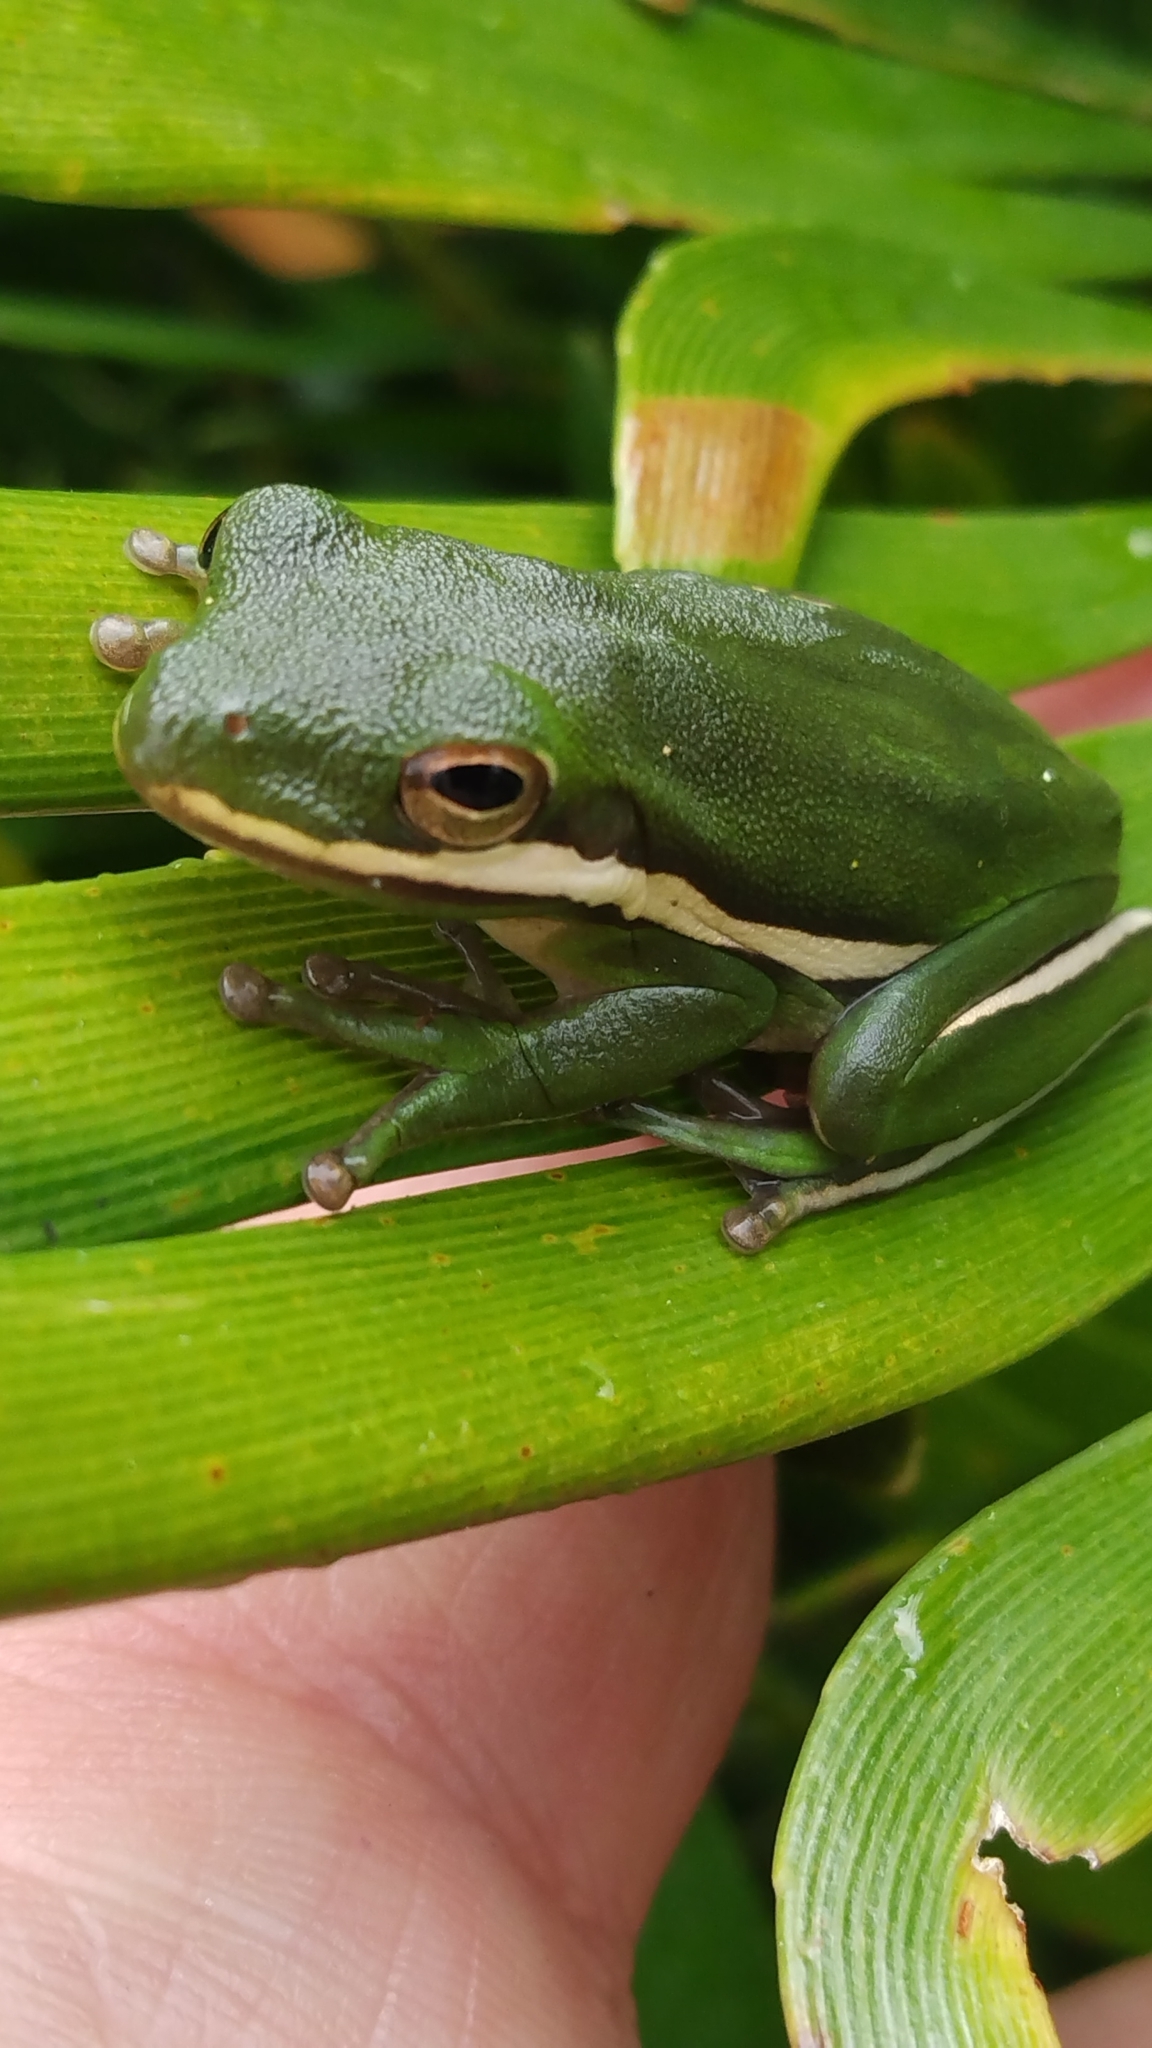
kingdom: Animalia
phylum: Chordata
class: Amphibia
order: Anura
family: Hylidae
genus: Dryophytes
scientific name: Dryophytes cinereus
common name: Green treefrog
